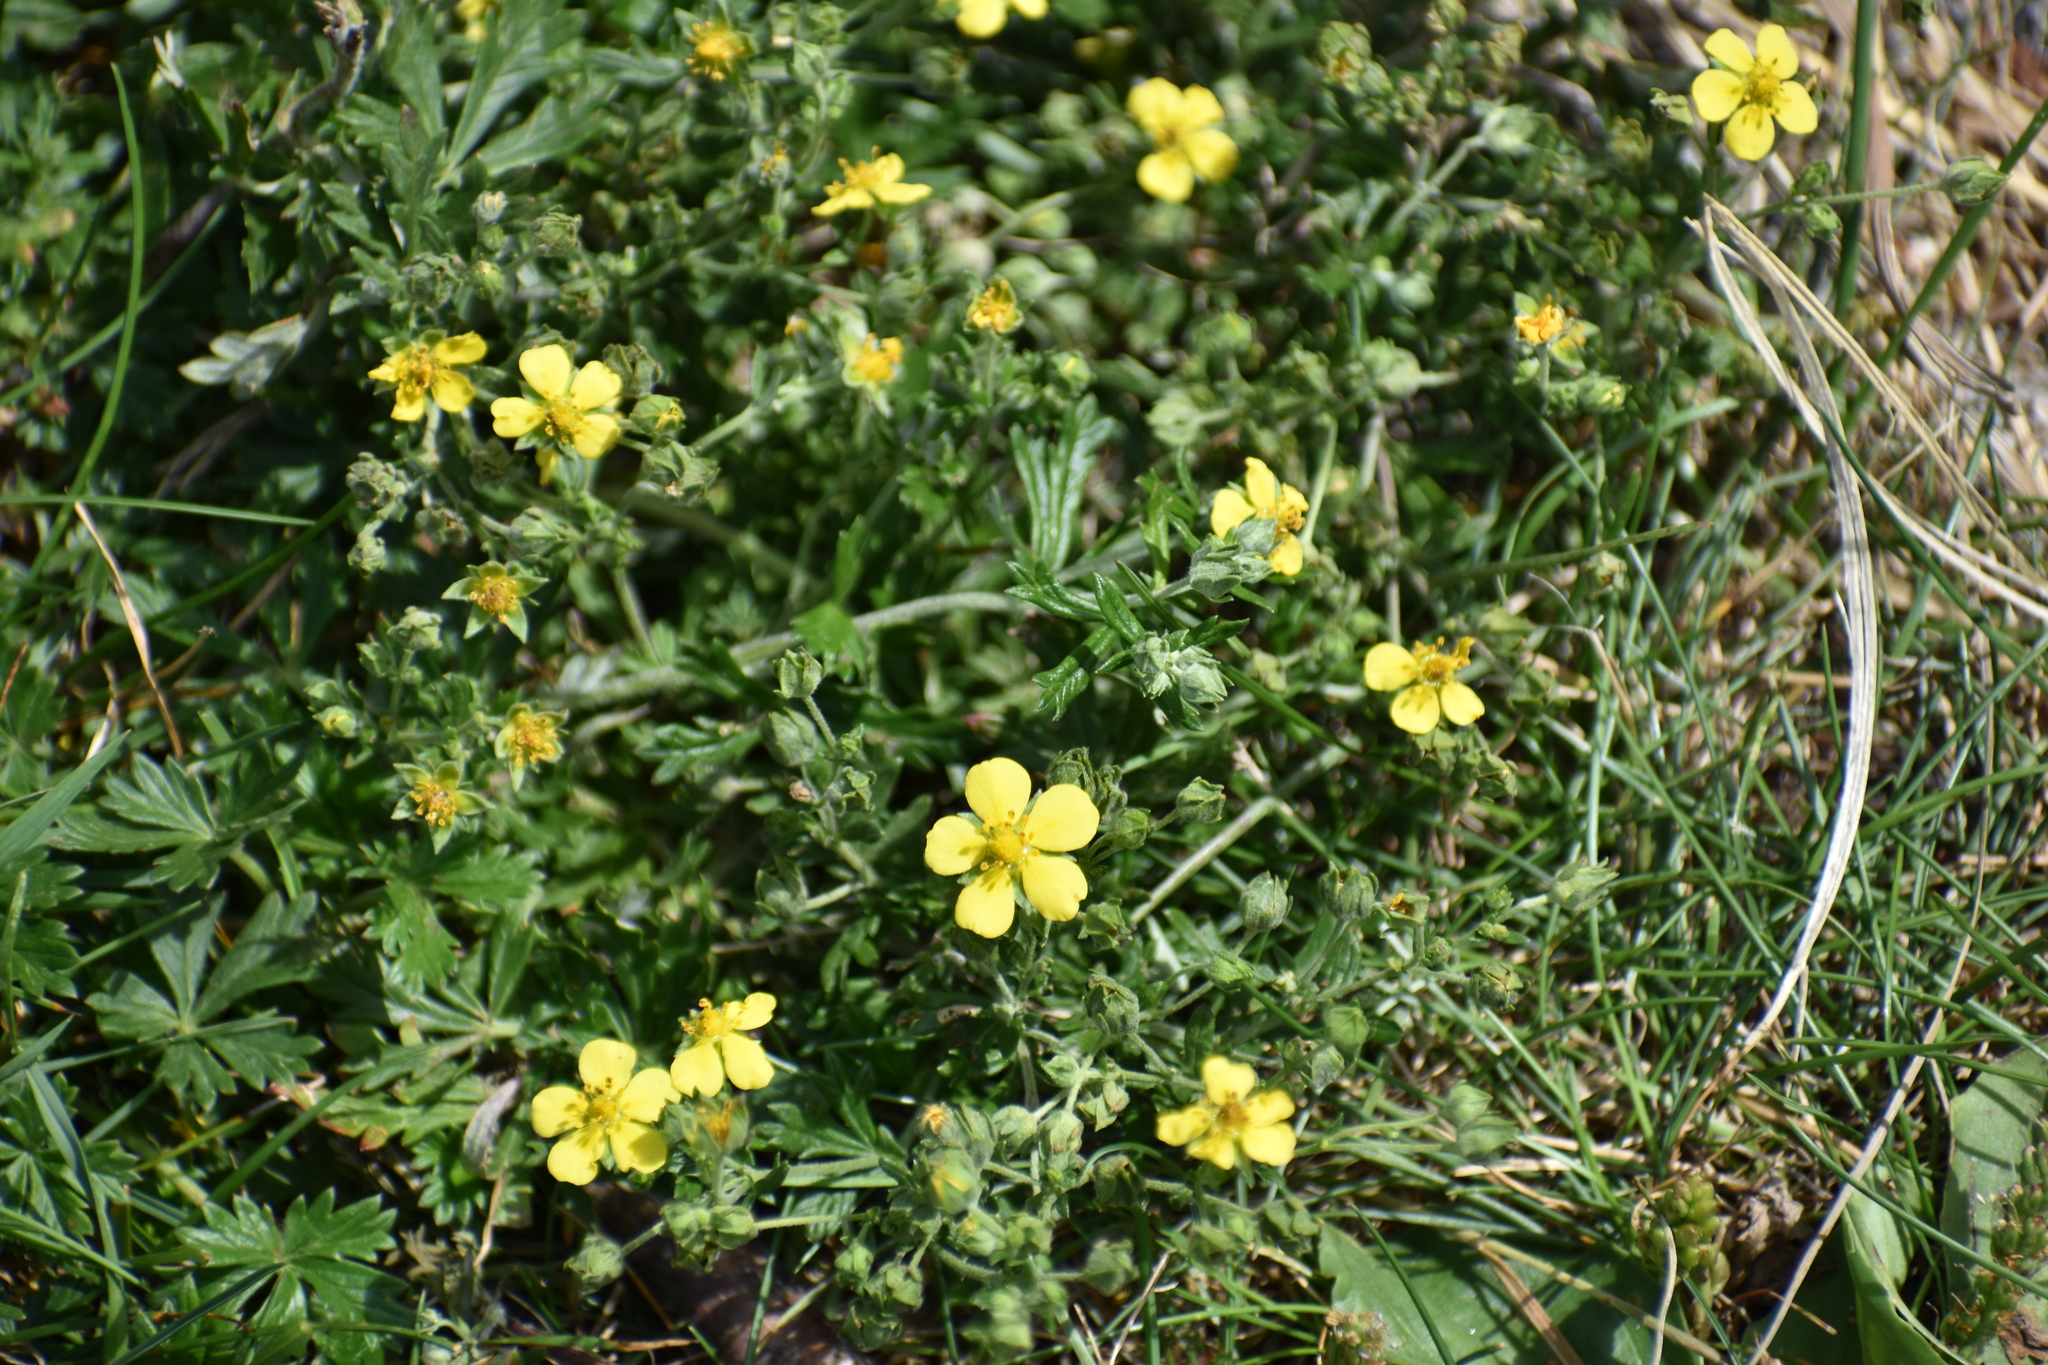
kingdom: Plantae
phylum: Tracheophyta
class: Magnoliopsida
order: Rosales
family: Rosaceae
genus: Potentilla
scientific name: Potentilla argentea
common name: Hoary cinquefoil
